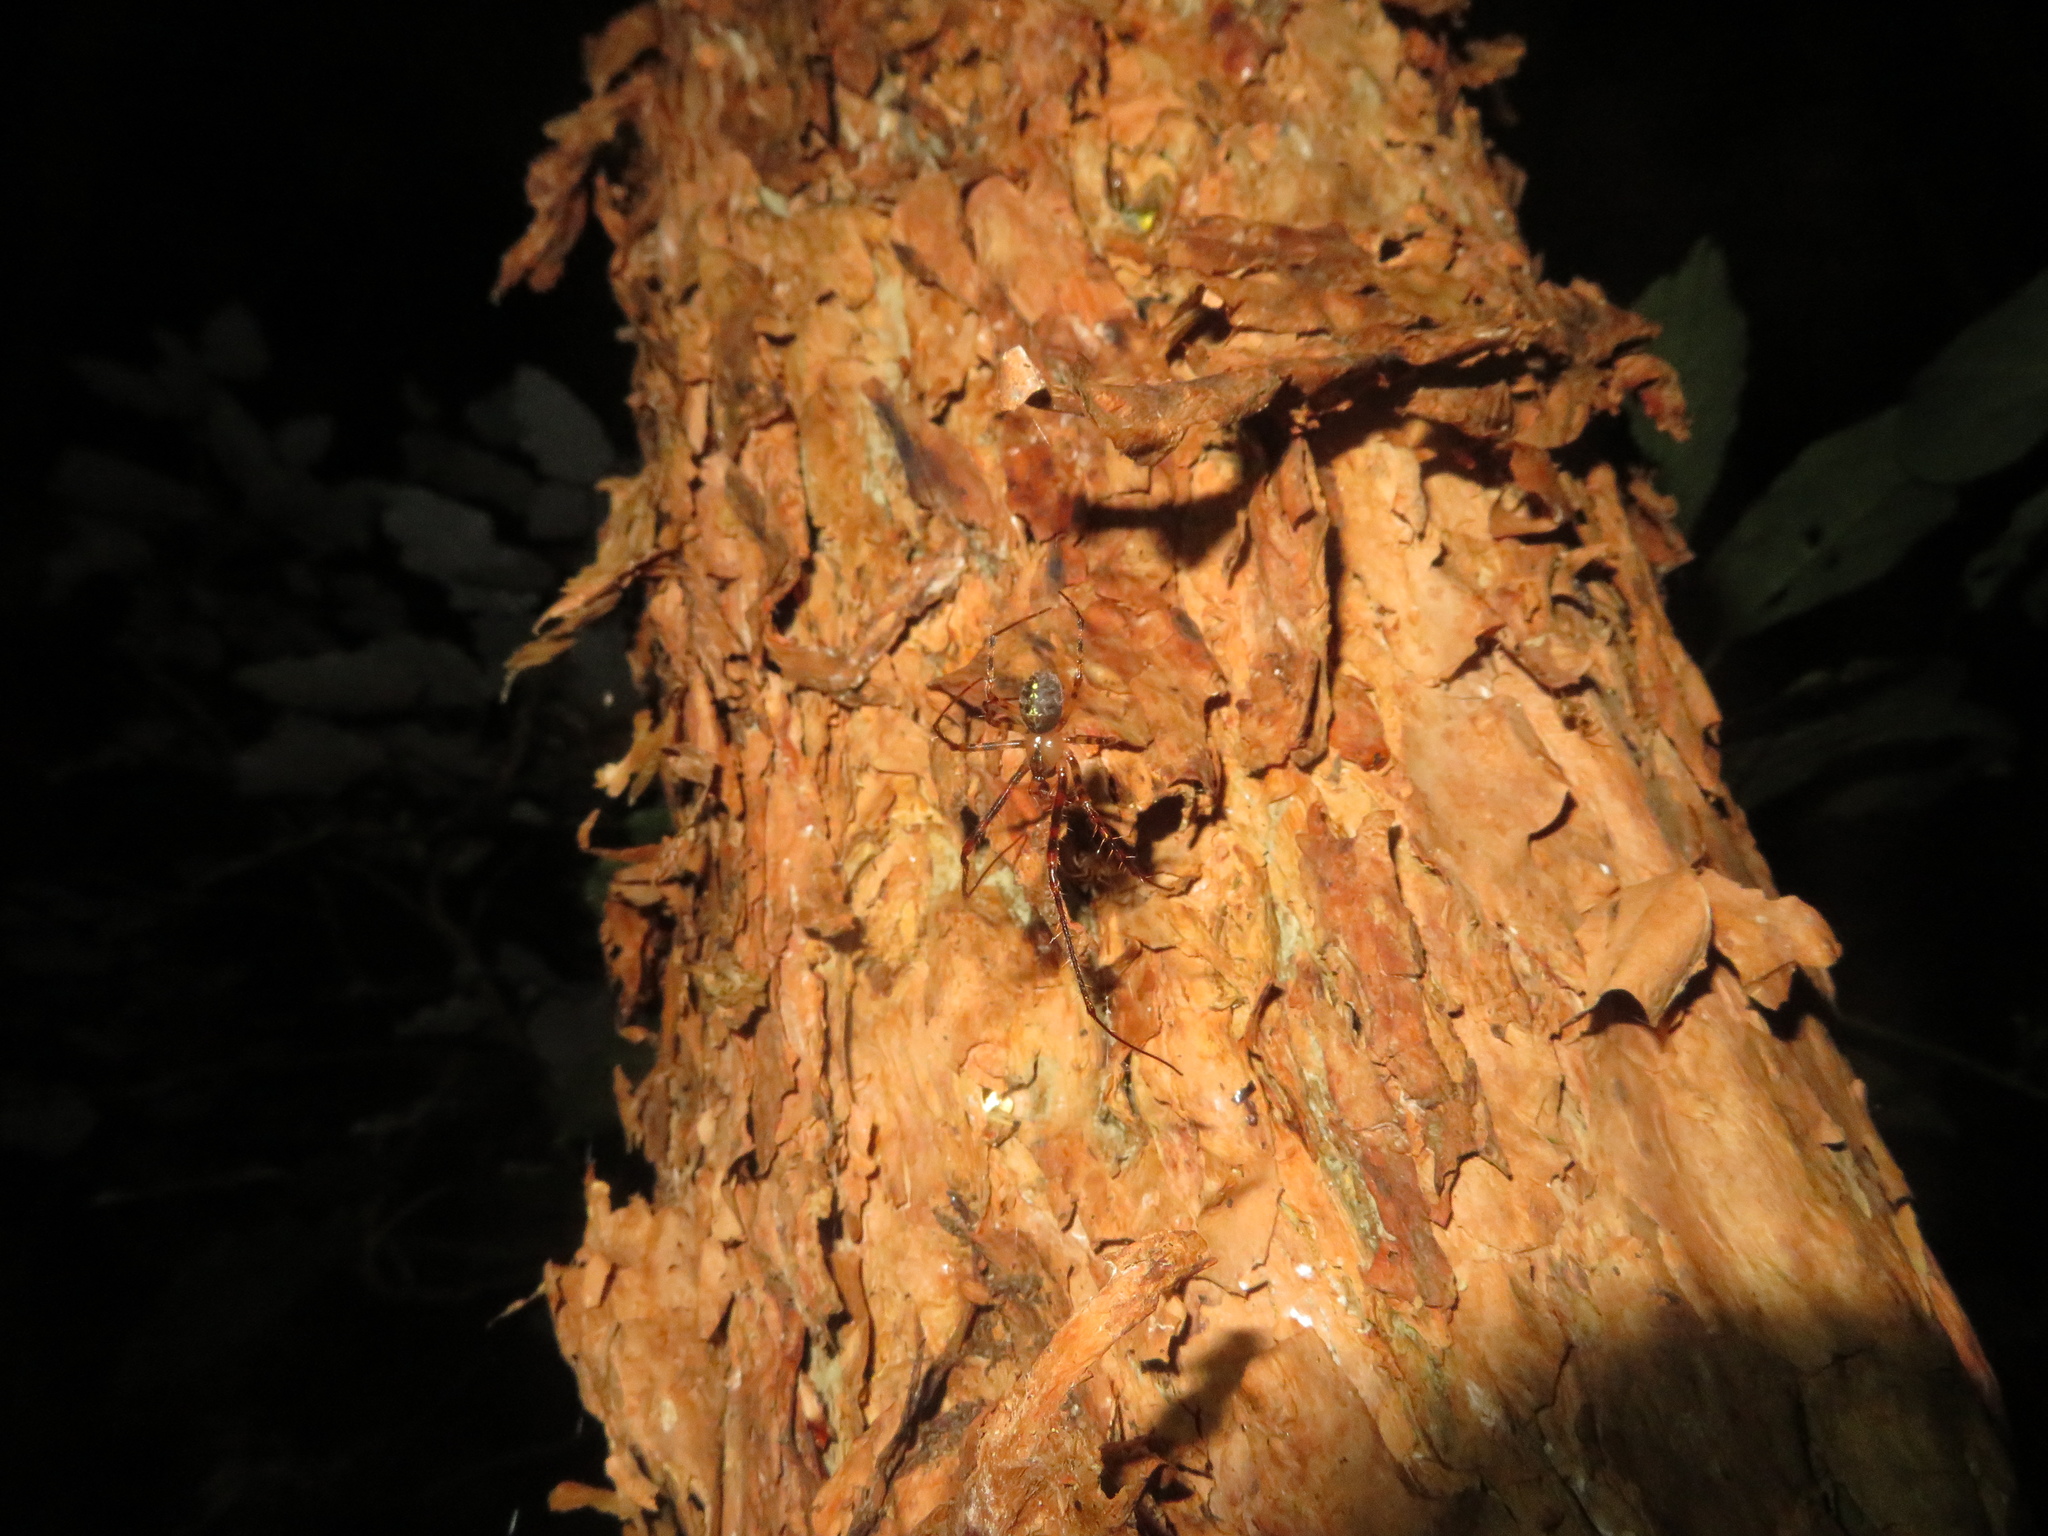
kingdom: Animalia
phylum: Arthropoda
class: Arachnida
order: Araneae
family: Tetragnathidae
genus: Tawhai
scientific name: Tawhai arborea
